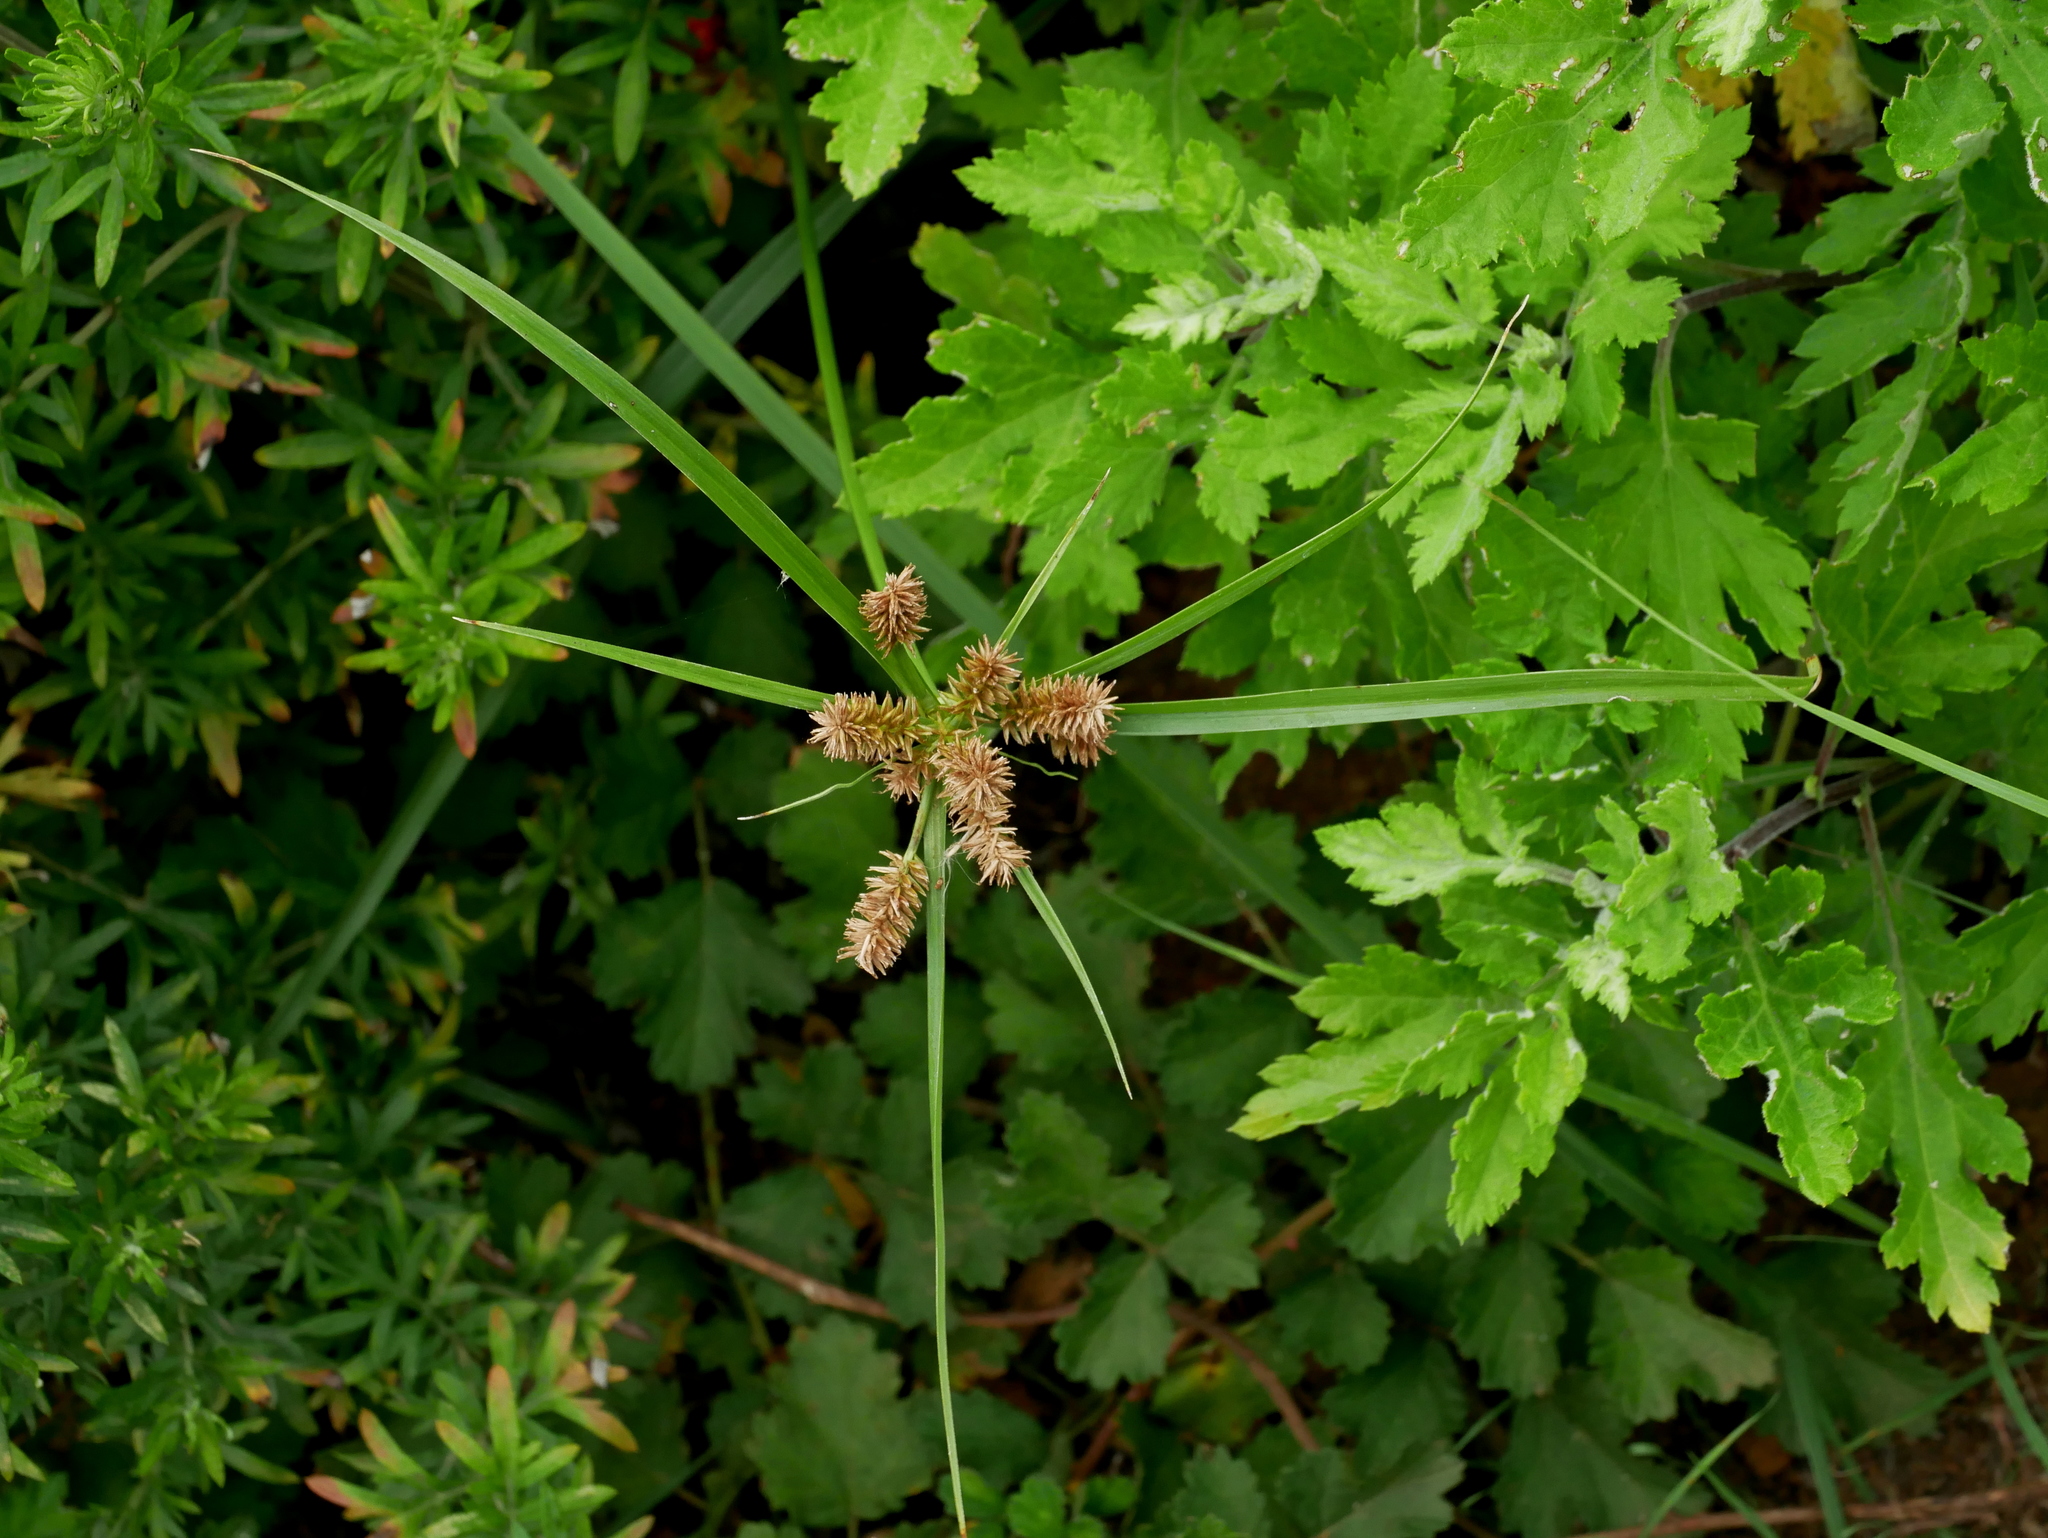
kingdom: Plantae
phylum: Tracheophyta
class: Liliopsida
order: Poales
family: Cyperaceae
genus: Cyperus
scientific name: Cyperus cyperoides
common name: Pacific island flat sedge
